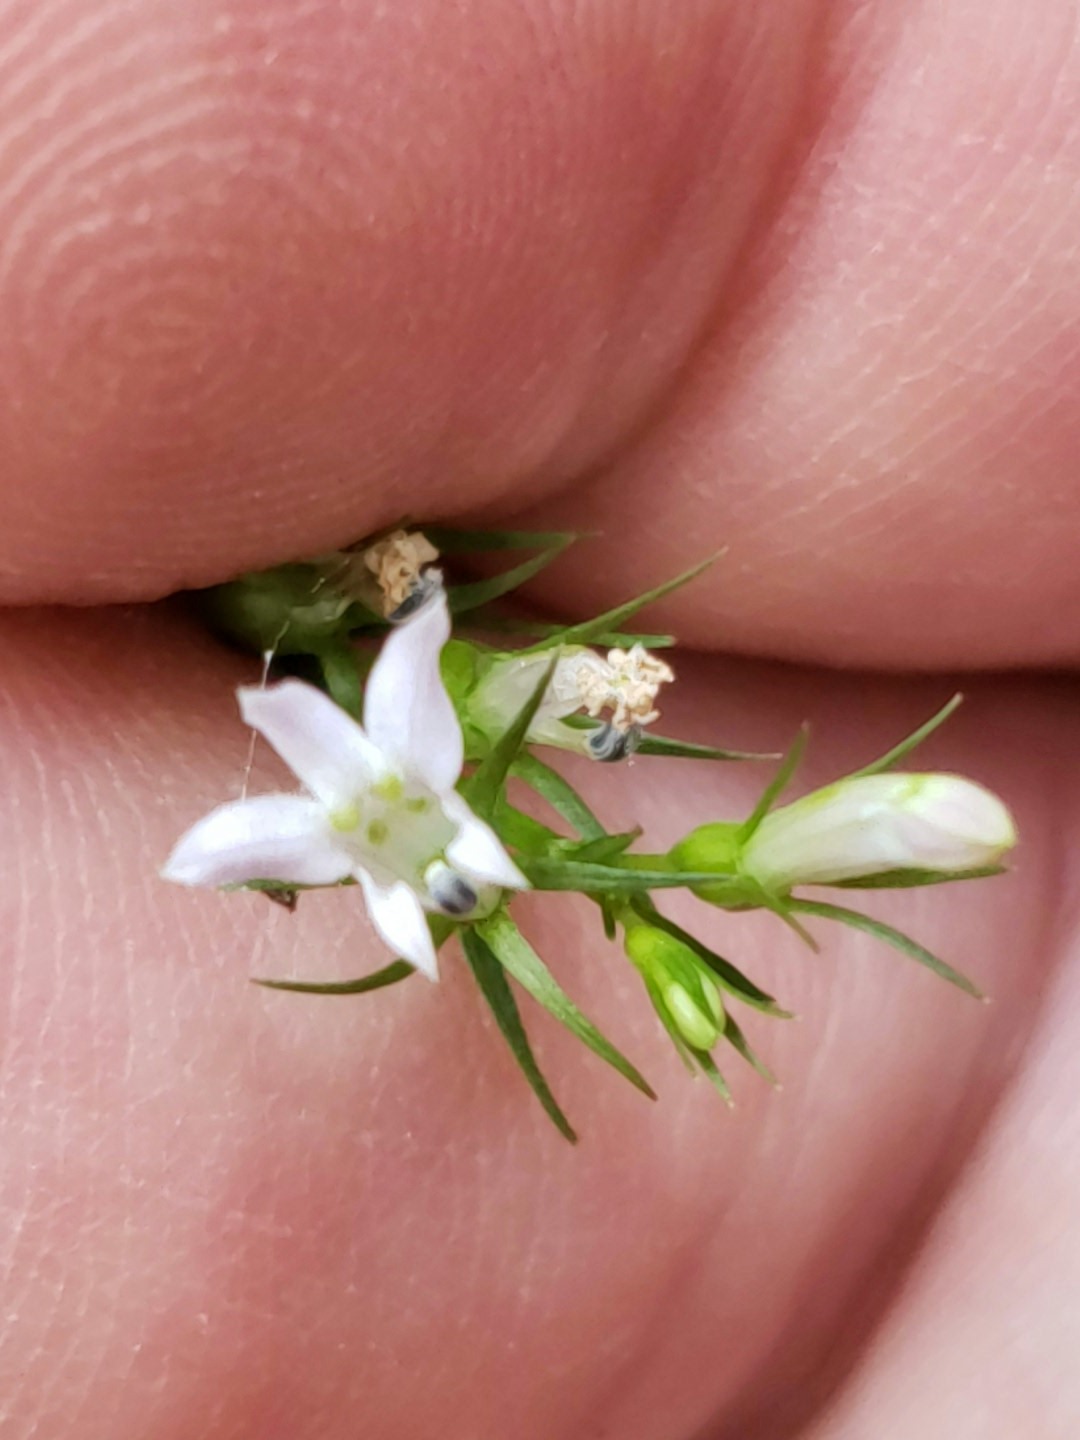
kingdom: Plantae
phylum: Tracheophyta
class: Magnoliopsida
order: Asterales
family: Campanulaceae
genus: Lobelia
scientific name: Lobelia inflata
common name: Indian tobacco
